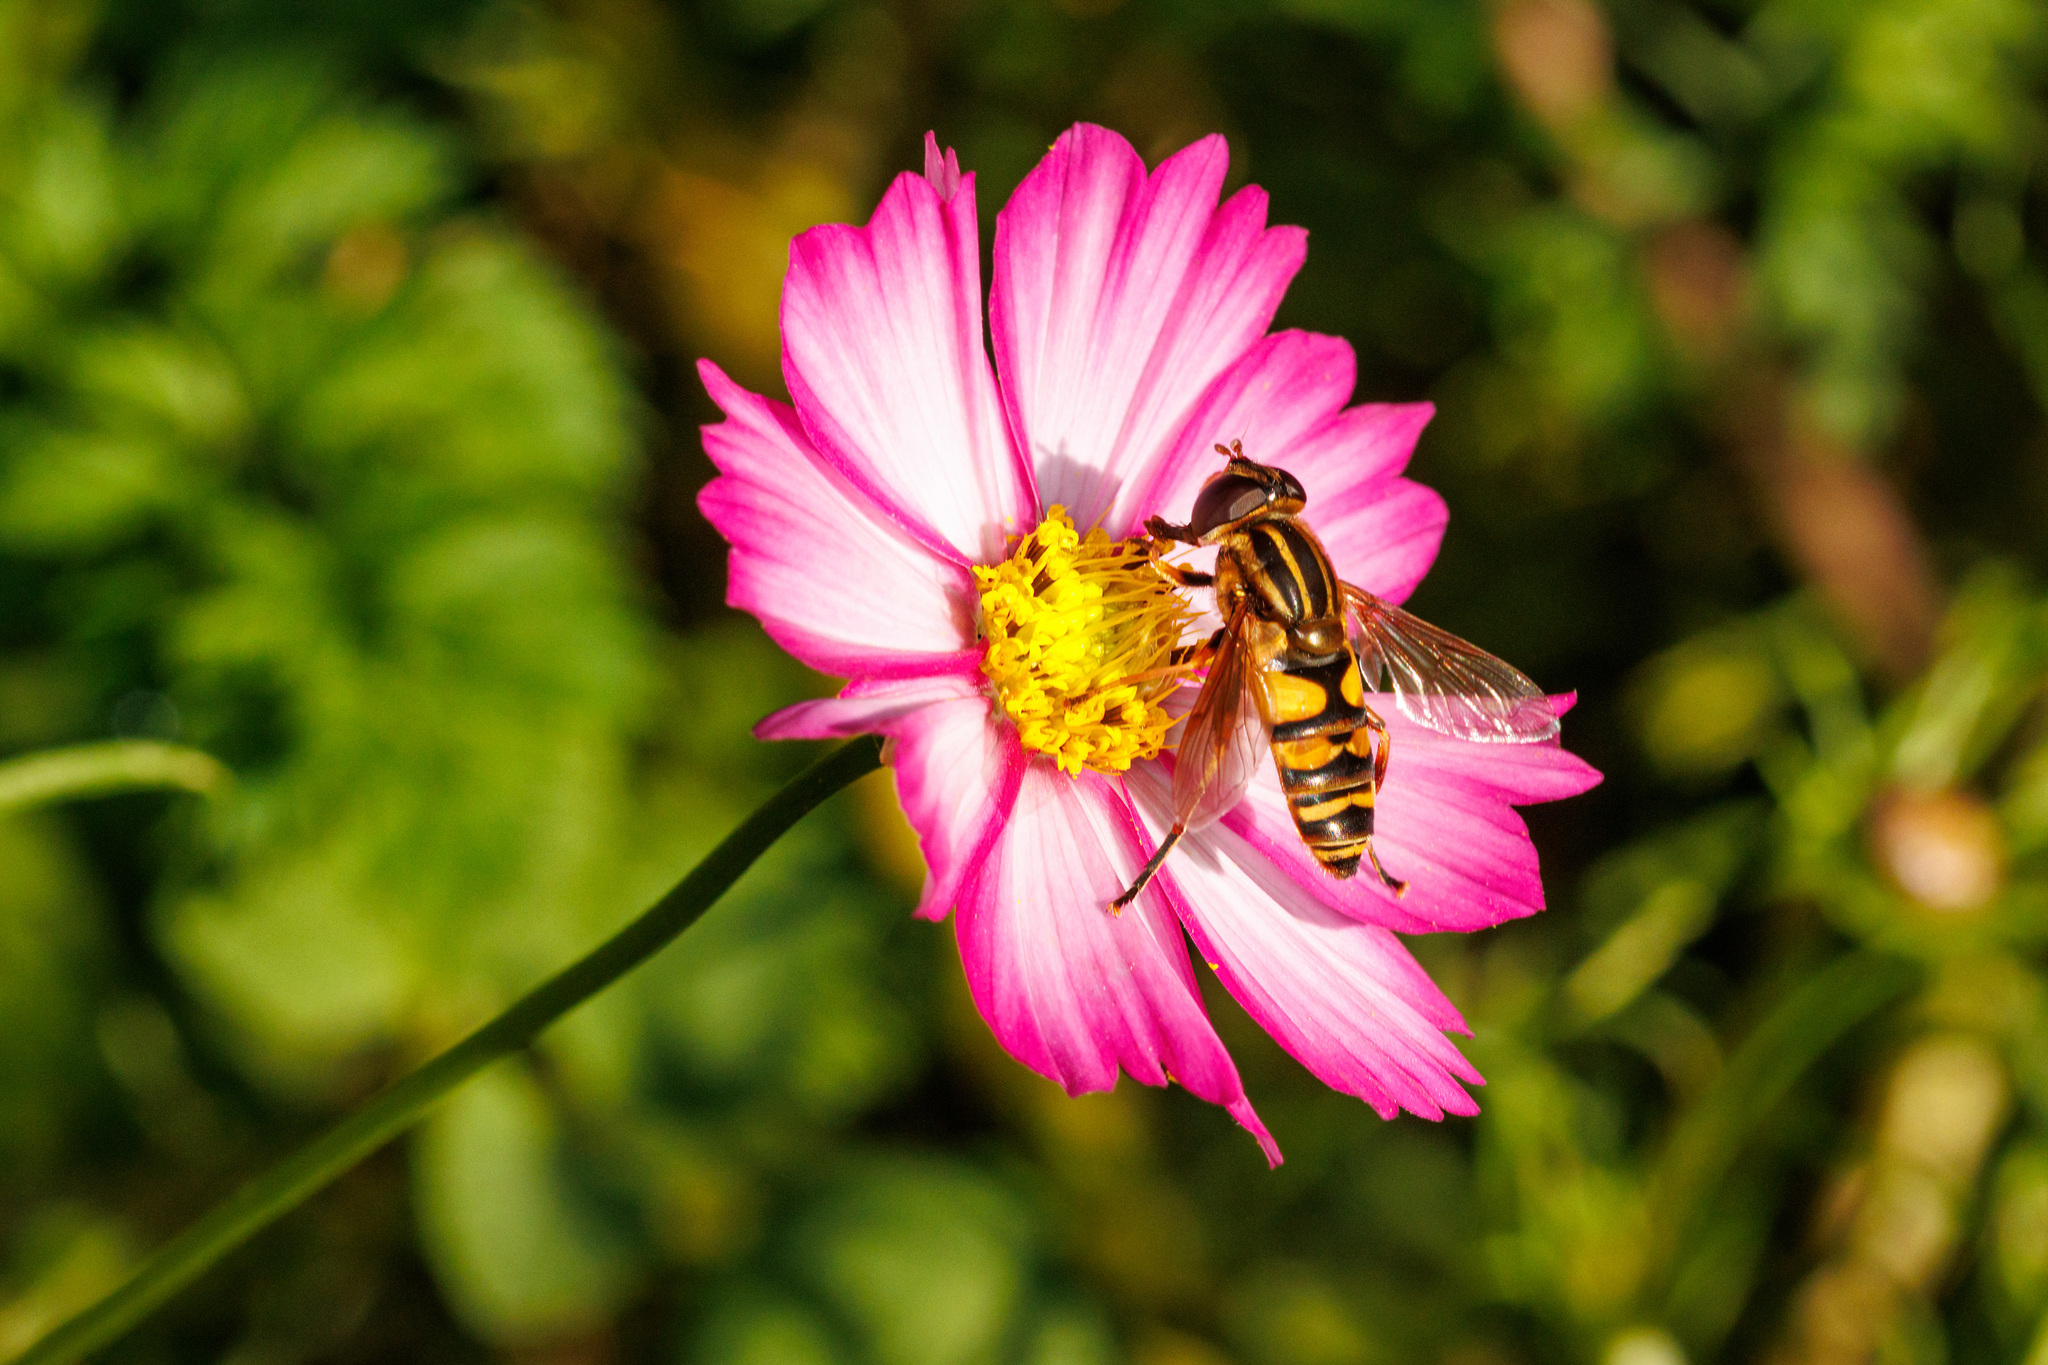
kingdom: Animalia
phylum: Arthropoda
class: Insecta
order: Diptera
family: Syrphidae
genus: Helophilus
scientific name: Helophilus fasciatus
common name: Narrow-headed marsh fly
